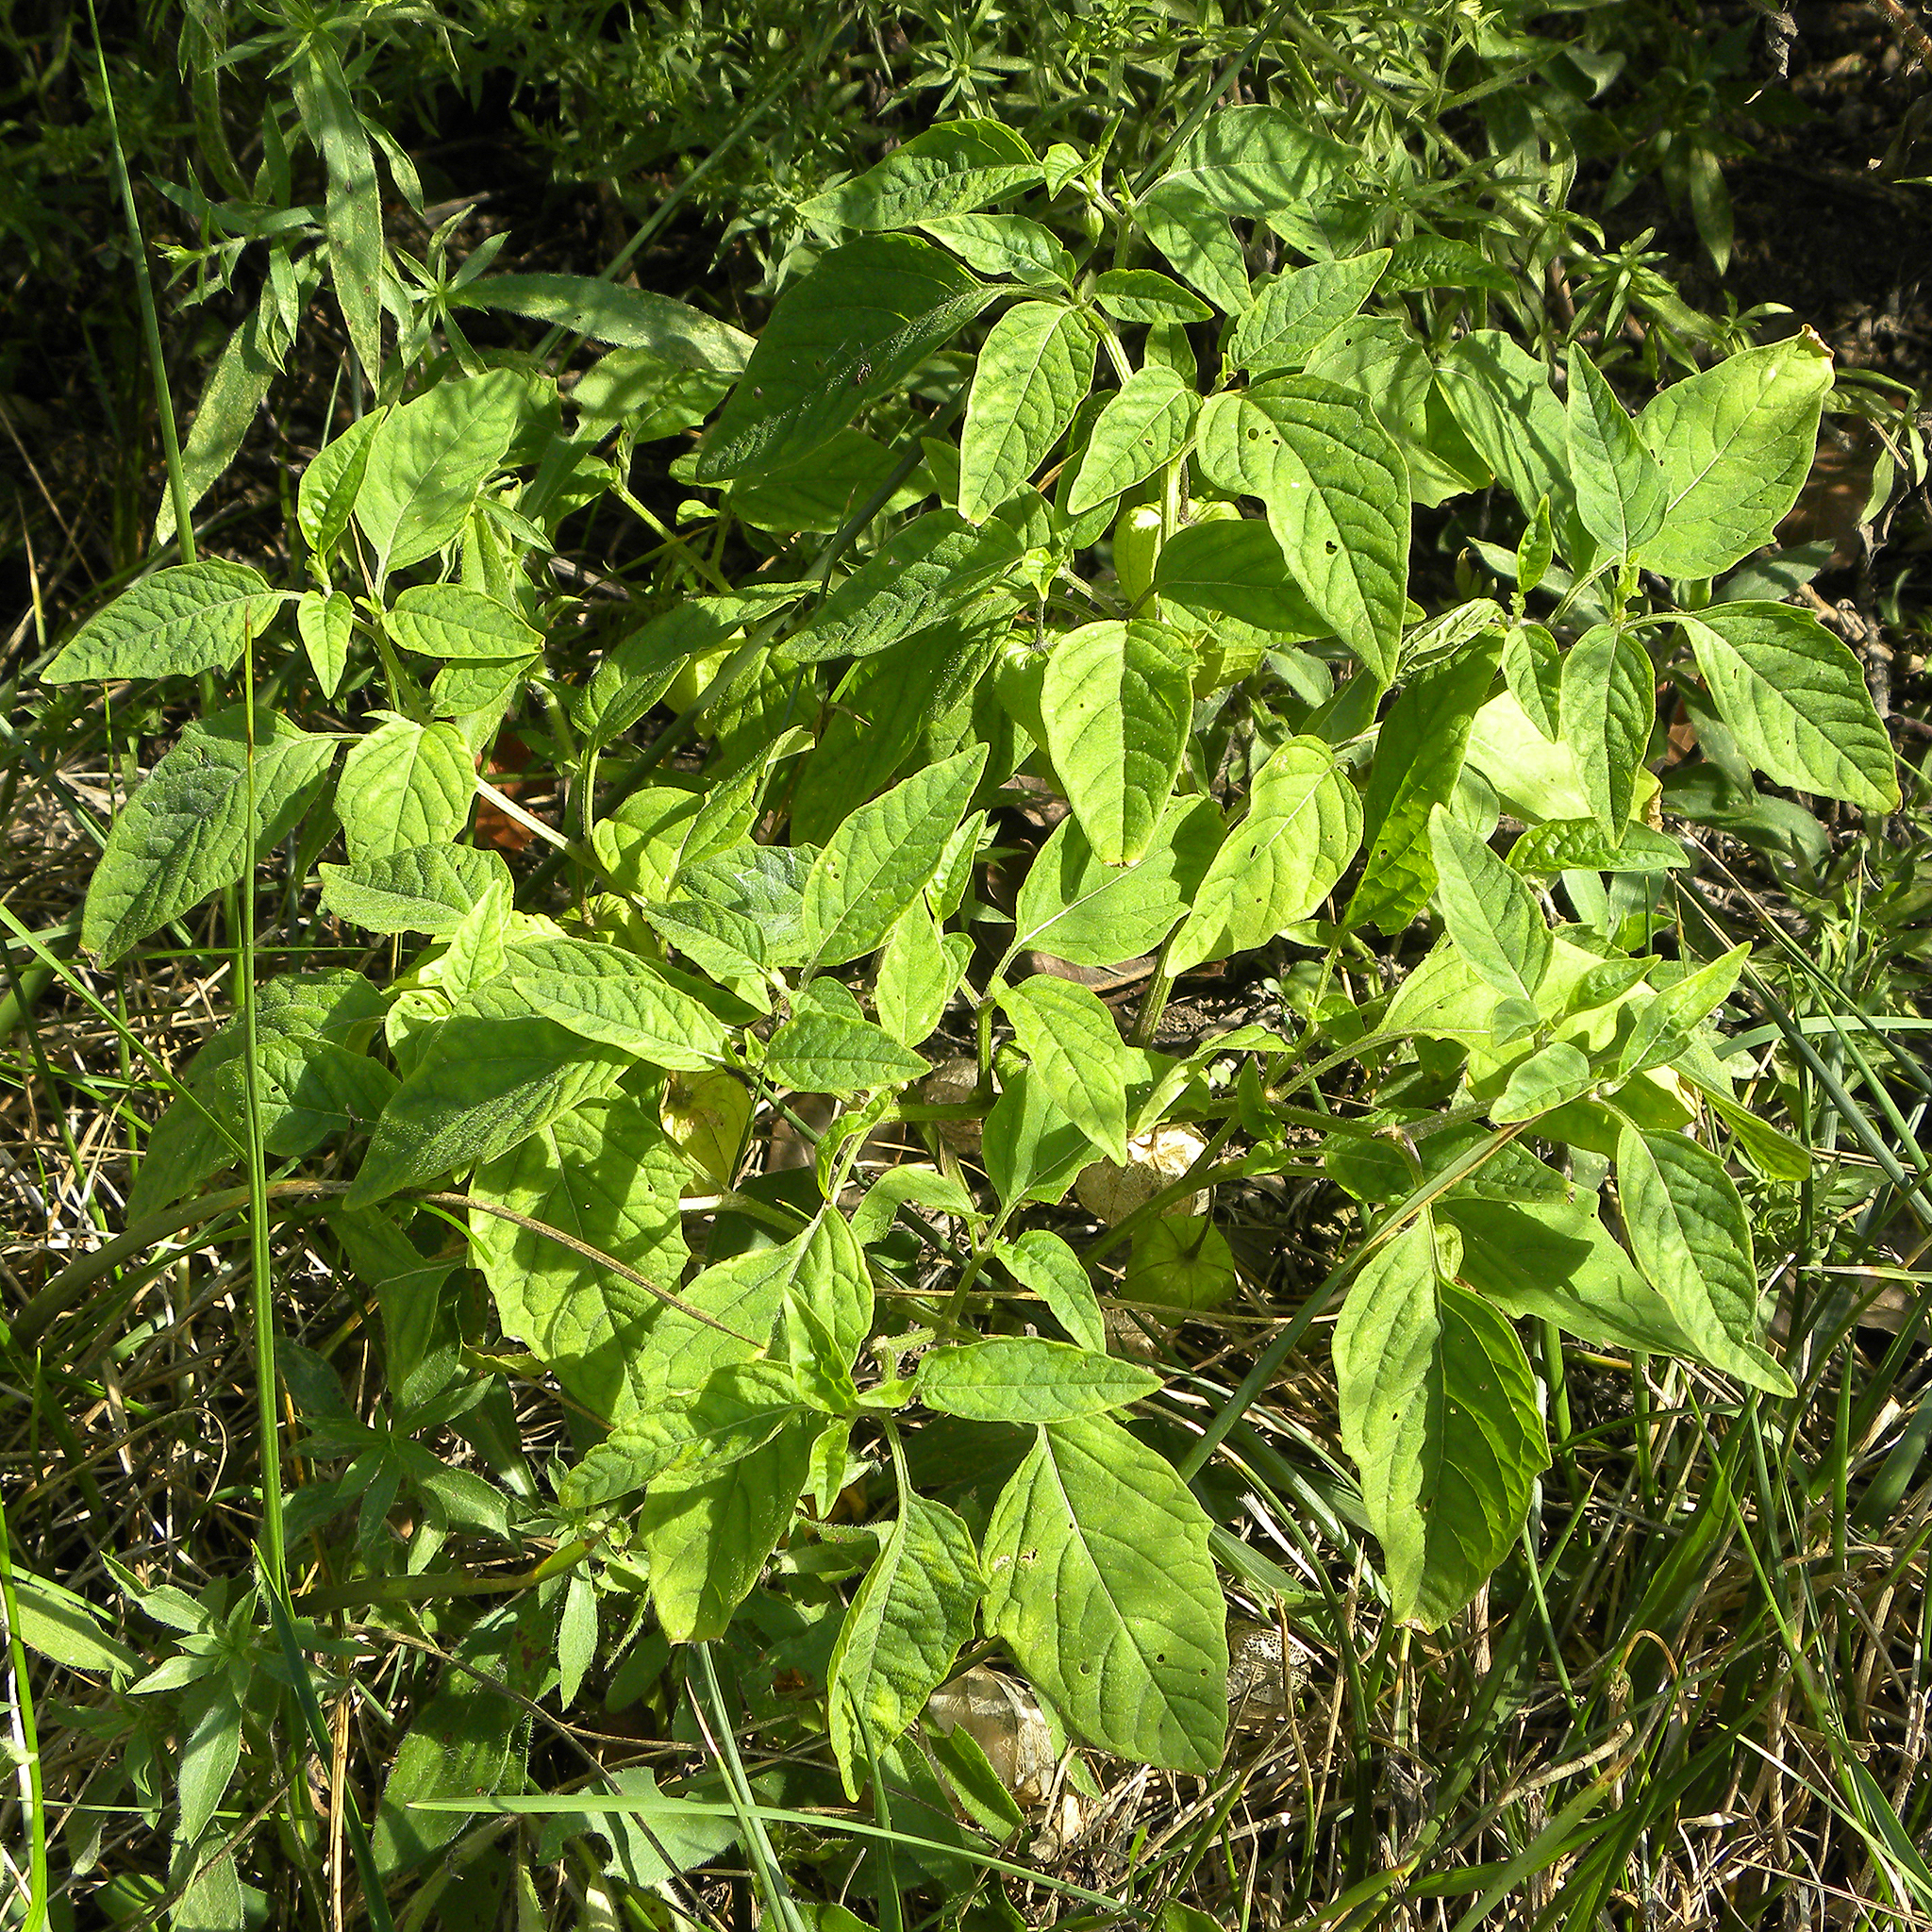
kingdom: Plantae
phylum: Tracheophyta
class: Magnoliopsida
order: Solanales
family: Solanaceae
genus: Physalis
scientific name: Physalis longifolia
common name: Common ground-cherry
